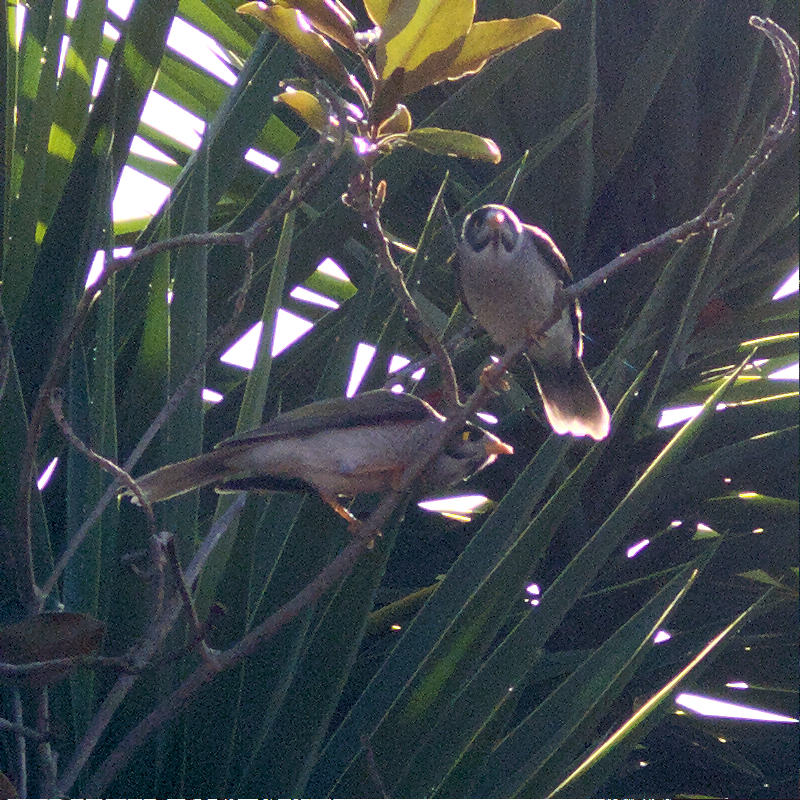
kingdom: Animalia
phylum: Chordata
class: Aves
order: Passeriformes
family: Meliphagidae
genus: Manorina
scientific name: Manorina melanocephala
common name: Noisy miner
